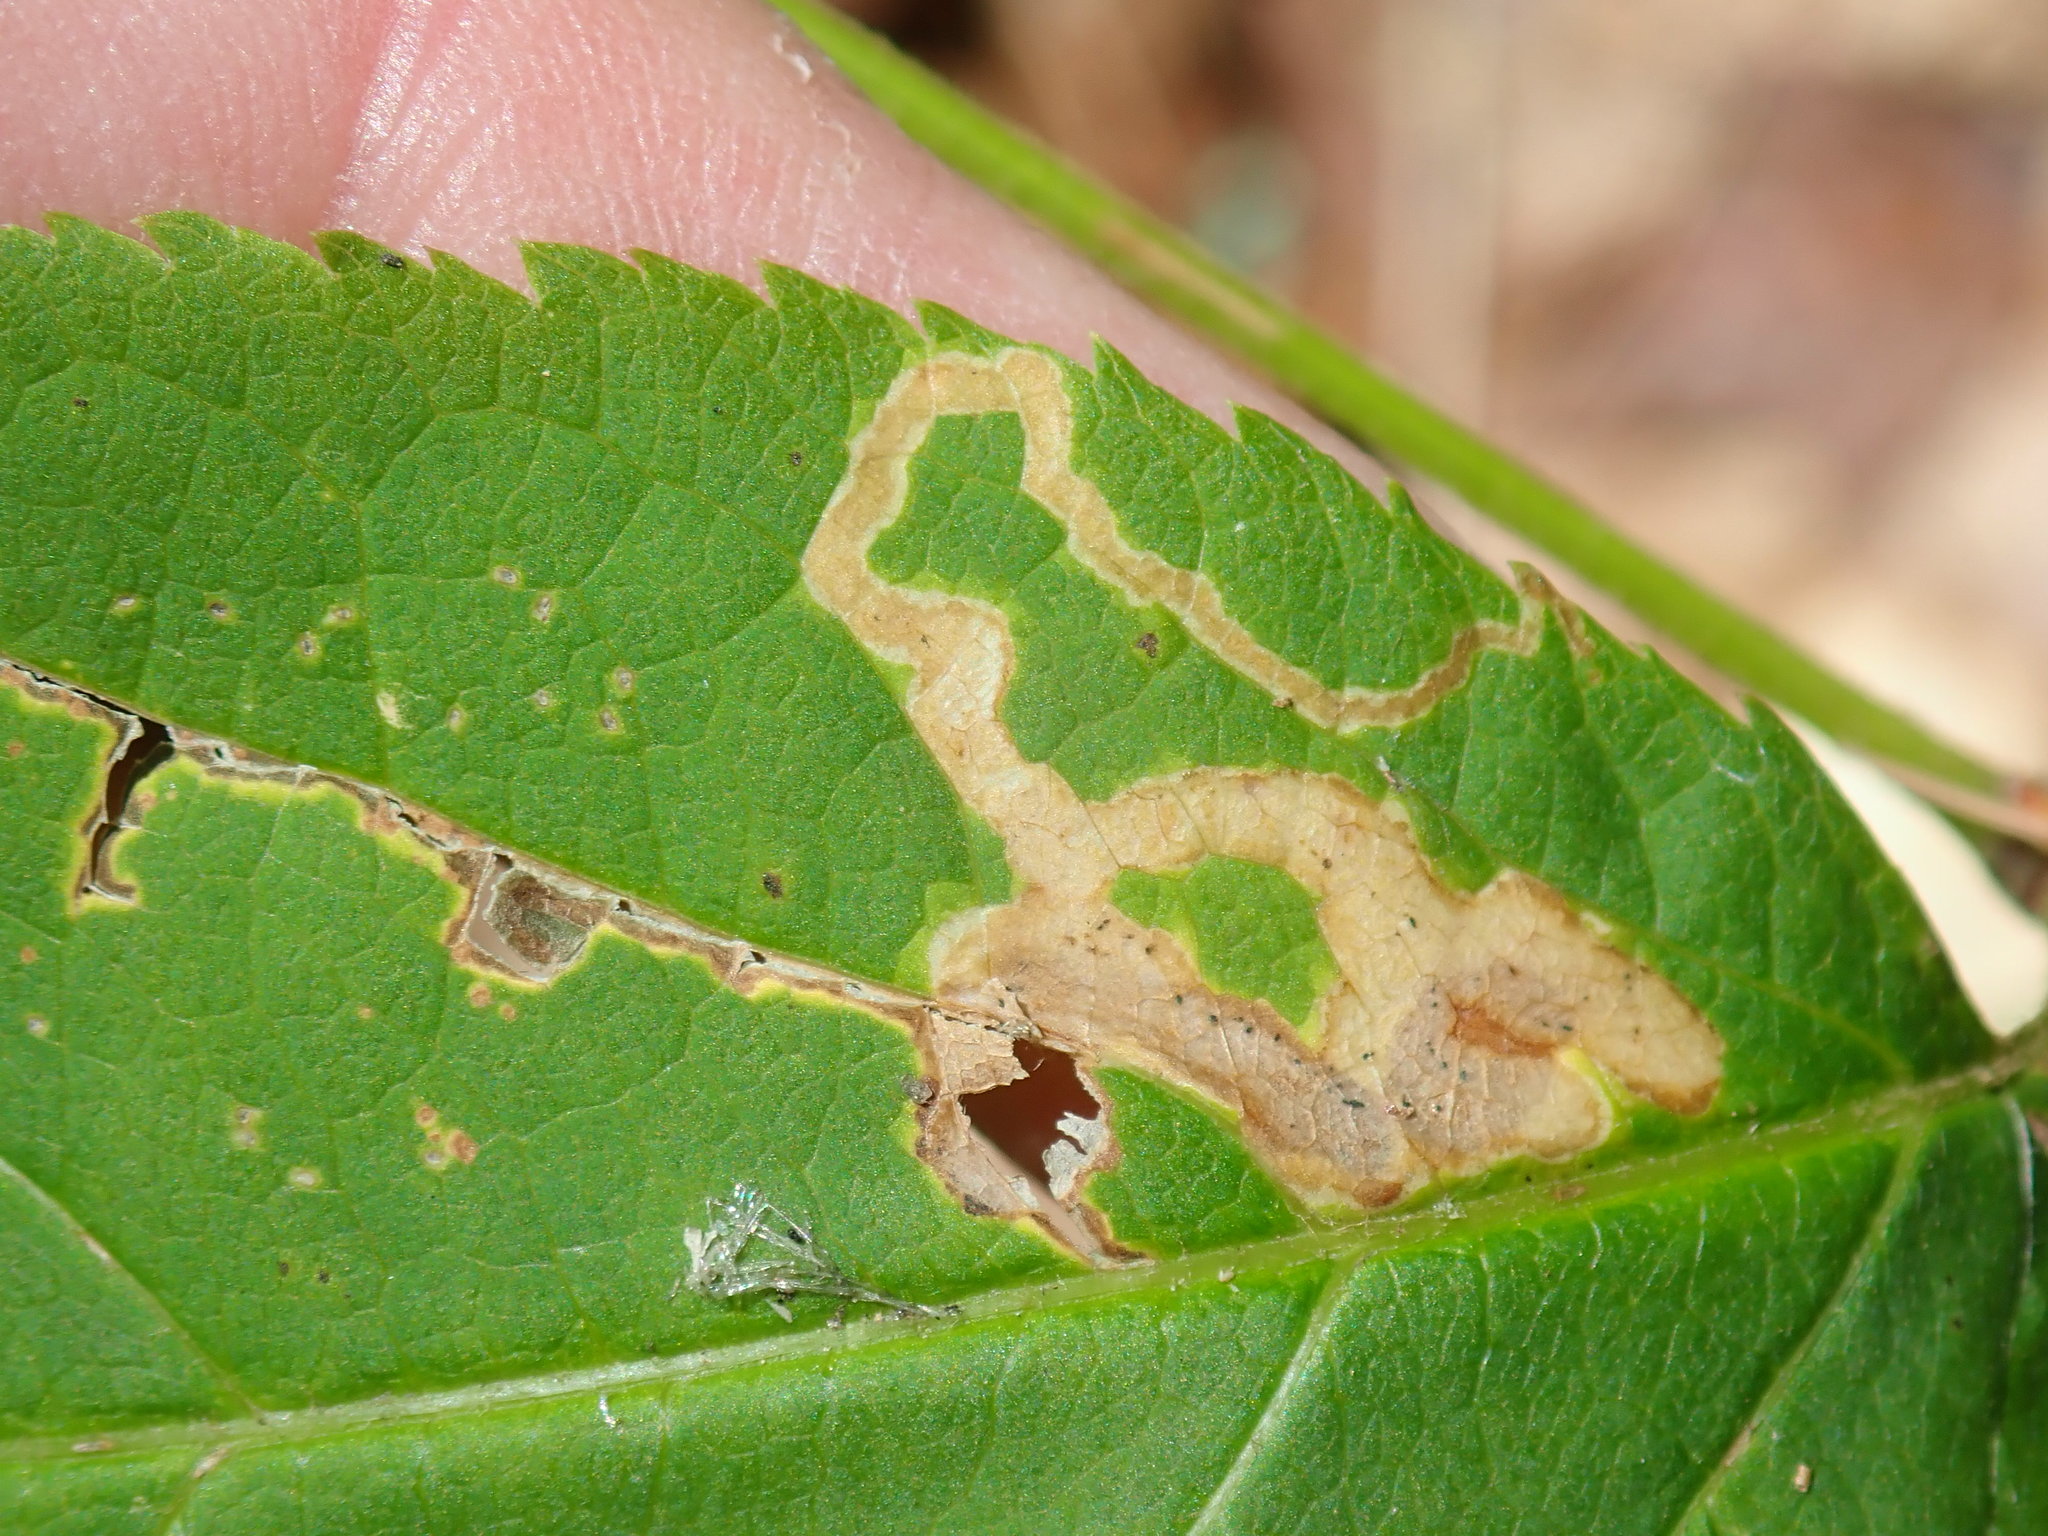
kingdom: Animalia
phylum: Arthropoda
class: Insecta
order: Diptera
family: Agromyzidae
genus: Phytomyza
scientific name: Phytomyza aralivora
